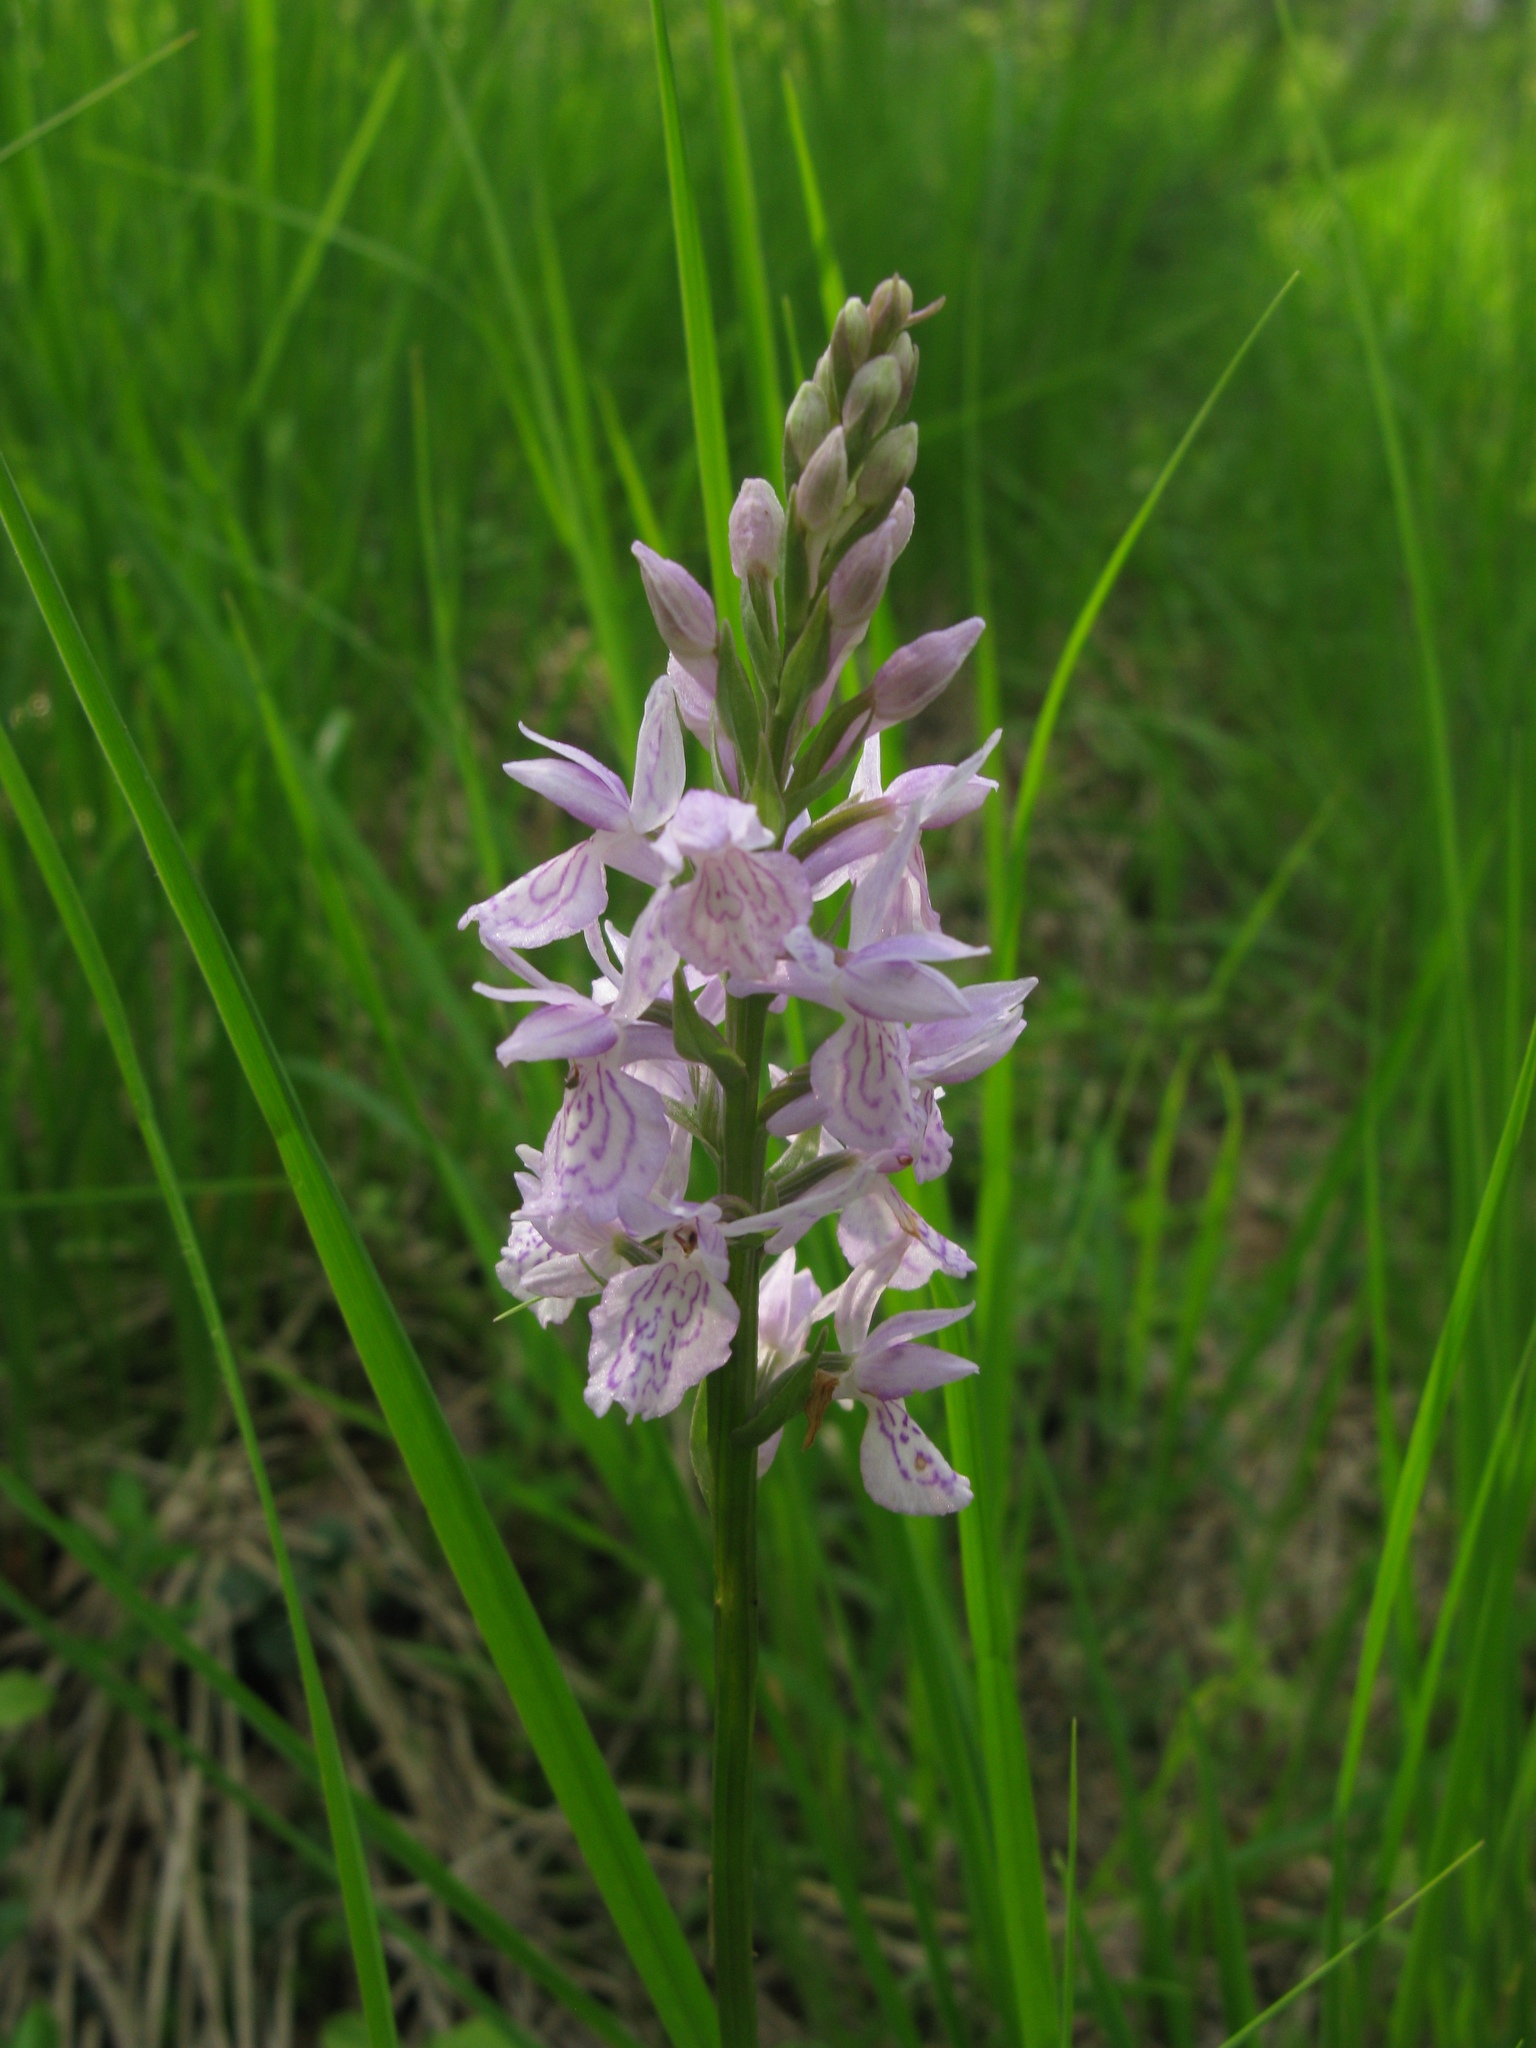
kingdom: Plantae
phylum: Tracheophyta
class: Liliopsida
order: Asparagales
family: Orchidaceae
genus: Dactylorhiza
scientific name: Dactylorhiza maculata
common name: Heath spotted-orchid
